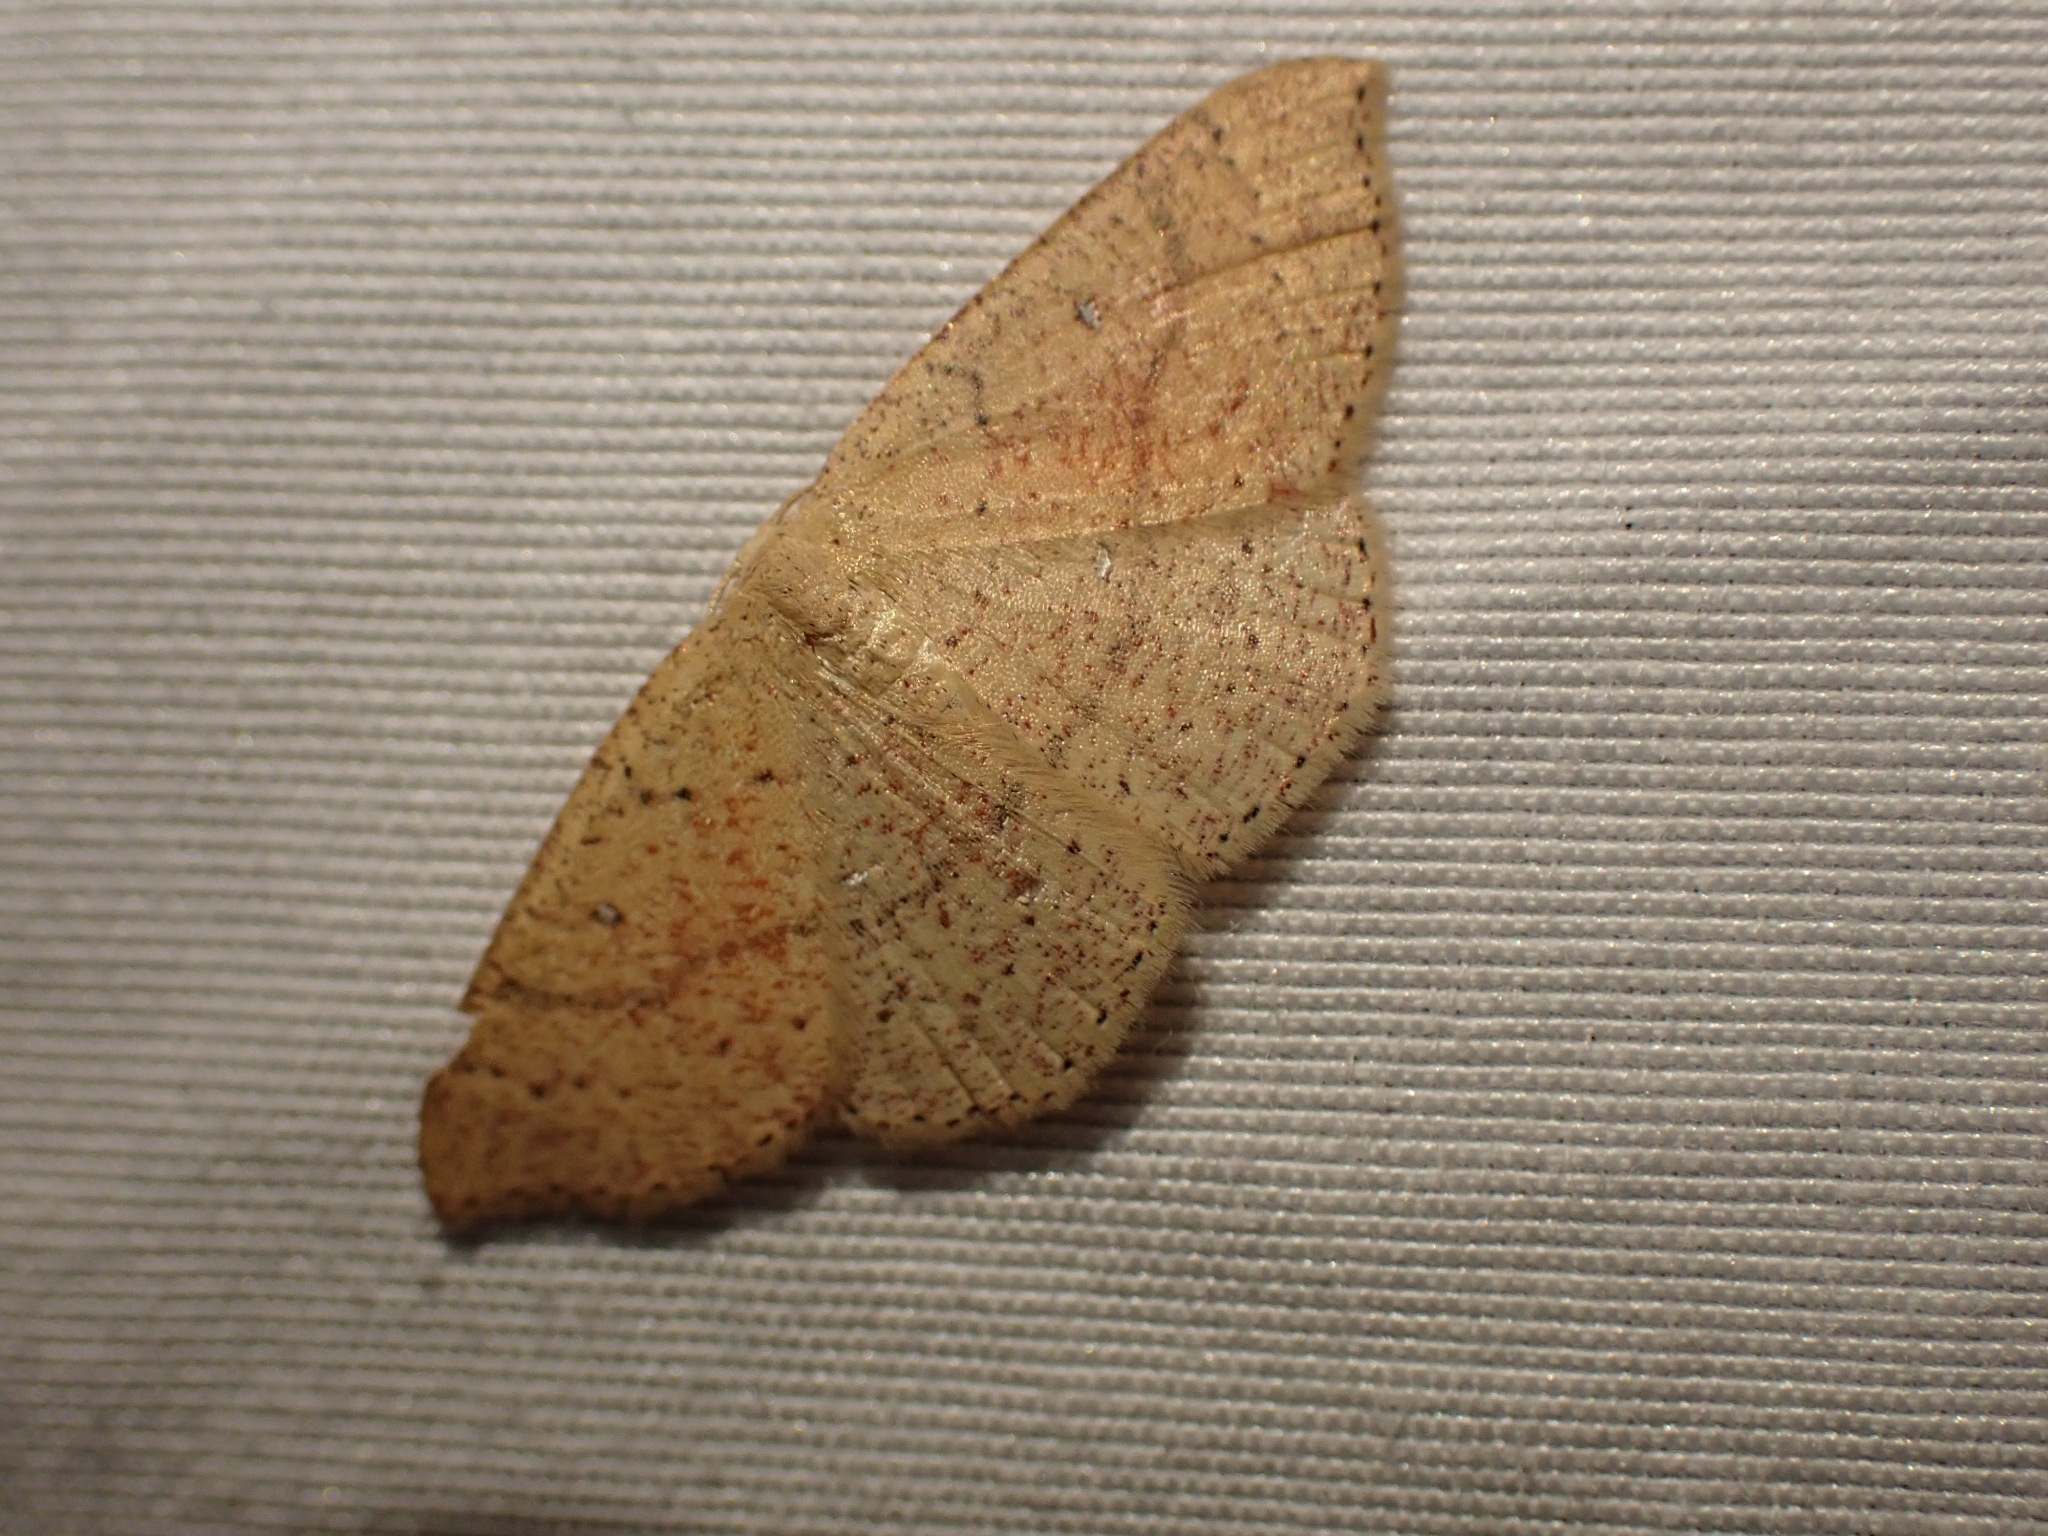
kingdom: Animalia
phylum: Arthropoda
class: Insecta
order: Lepidoptera
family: Geometridae
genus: Cyclophora
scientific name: Cyclophora dataria
